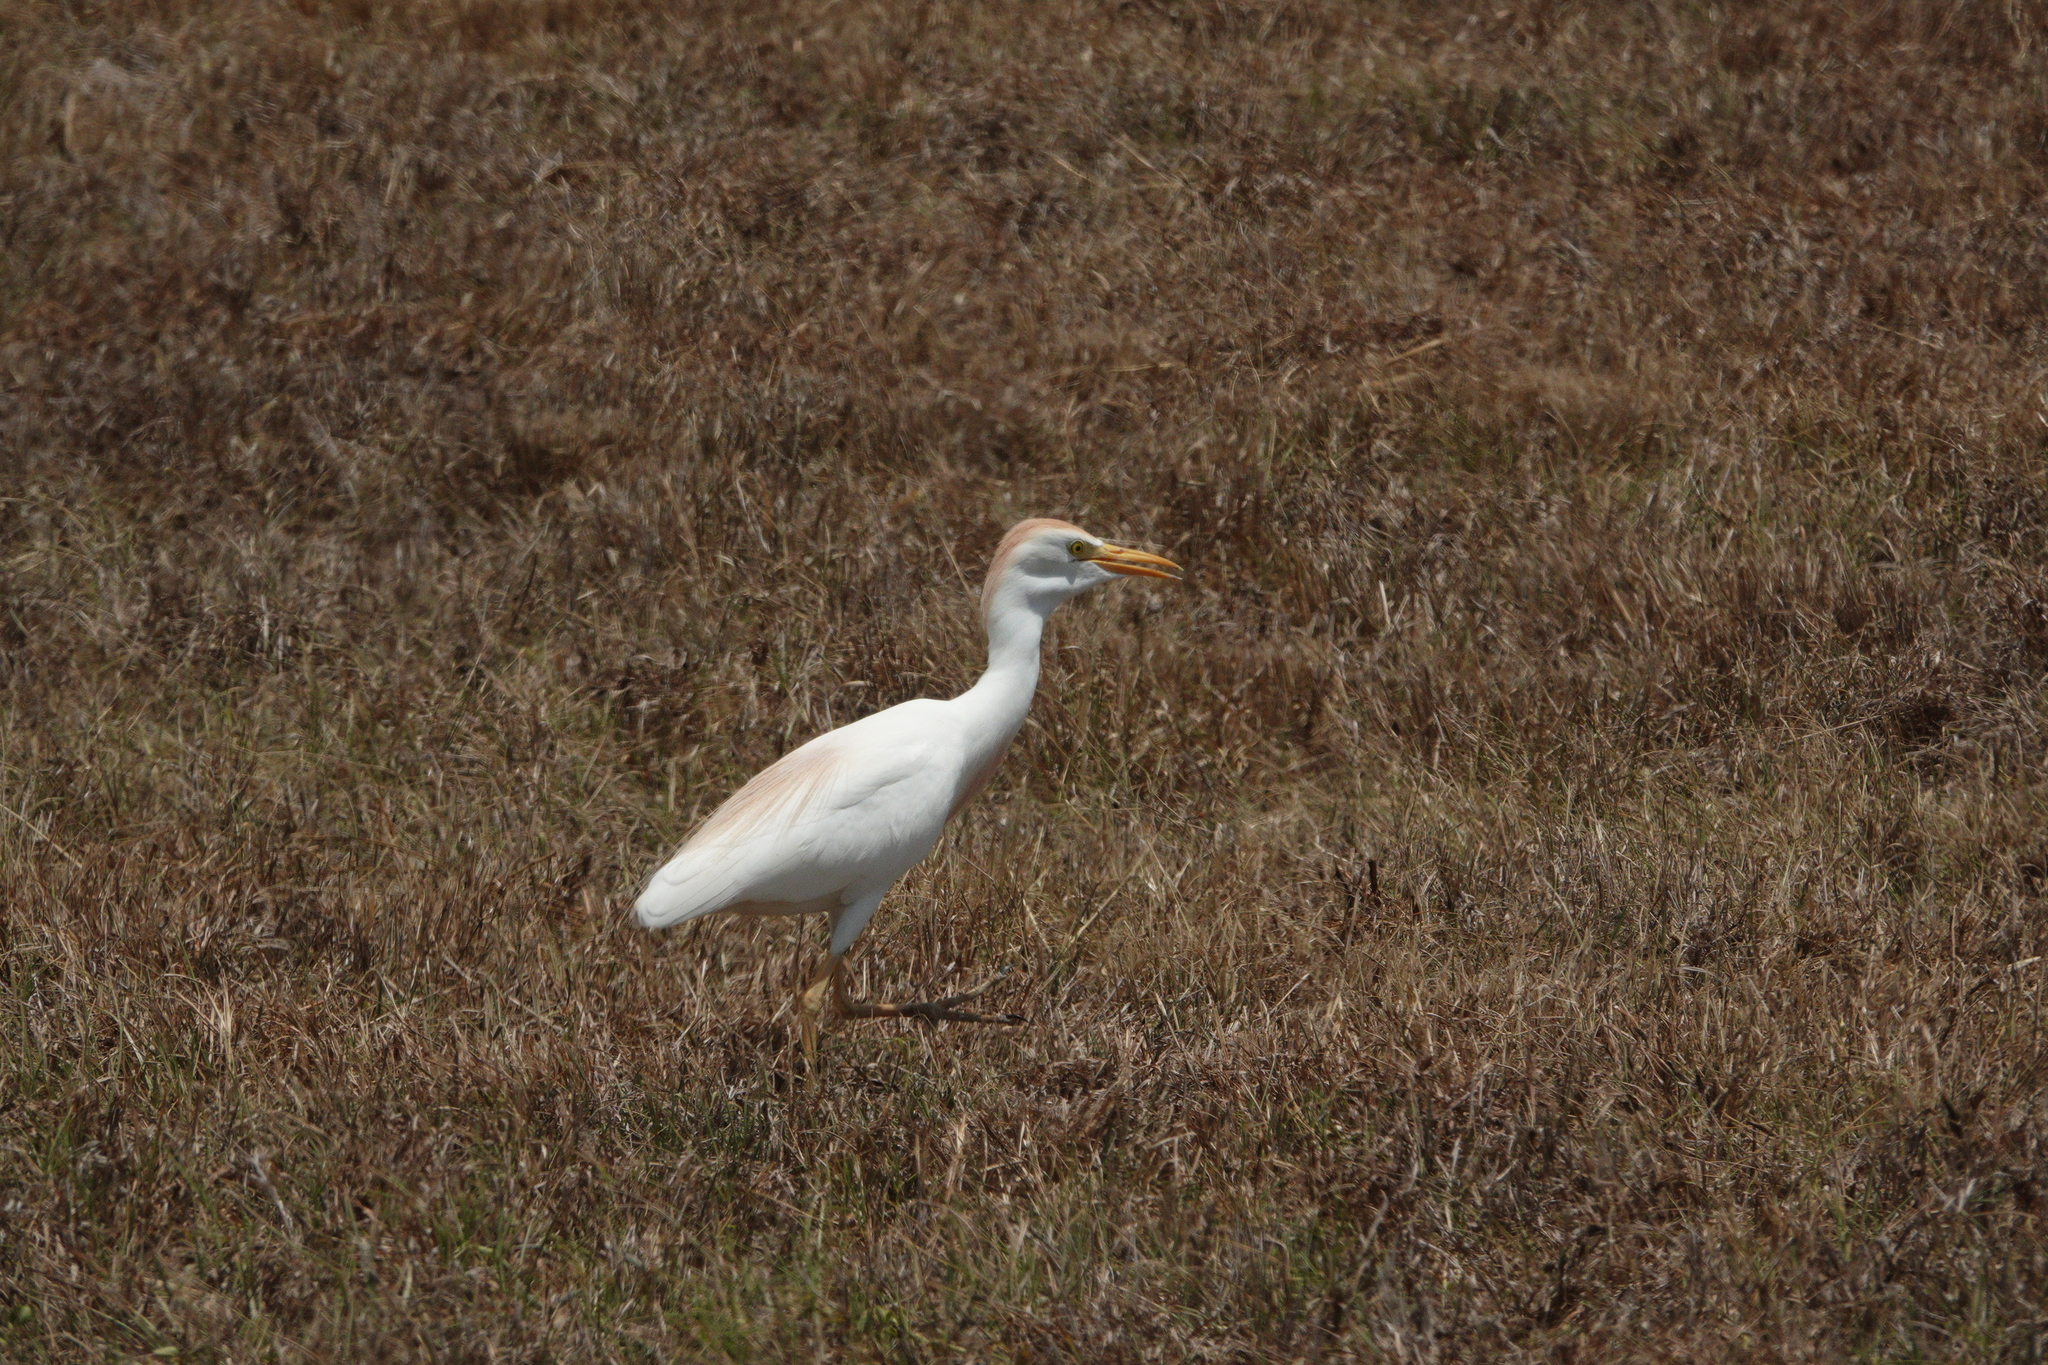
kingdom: Animalia
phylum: Chordata
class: Aves
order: Pelecaniformes
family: Ardeidae
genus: Bubulcus
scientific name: Bubulcus ibis
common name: Cattle egret
